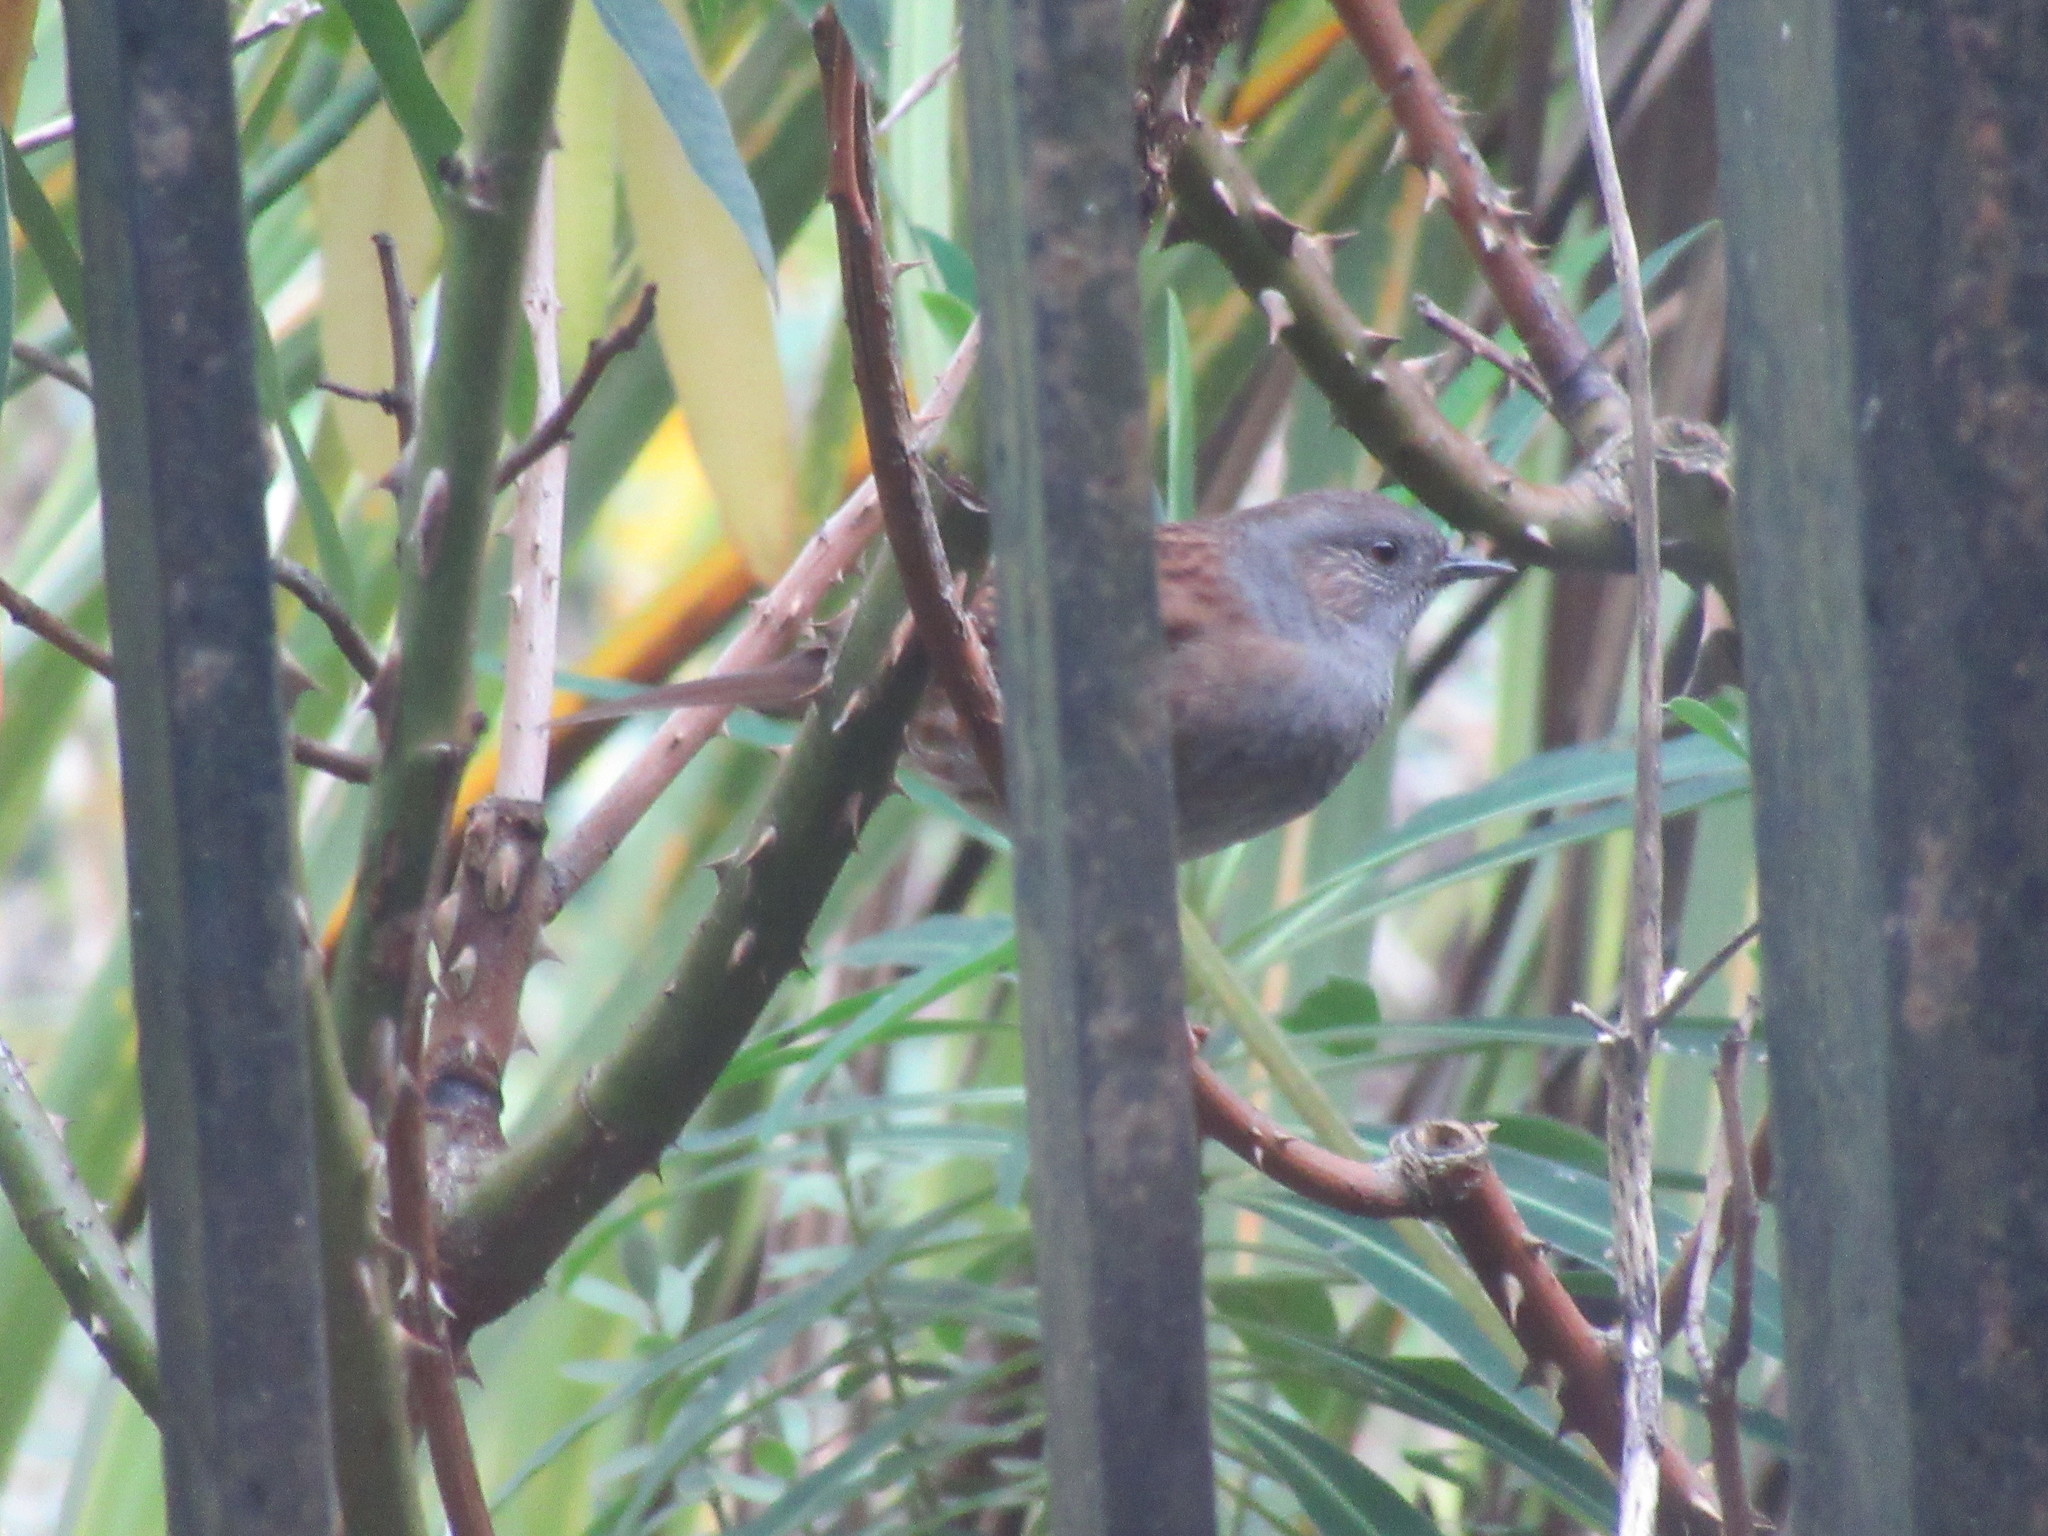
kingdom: Animalia
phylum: Chordata
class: Aves
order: Passeriformes
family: Prunellidae
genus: Prunella
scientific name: Prunella modularis
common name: Dunnock
